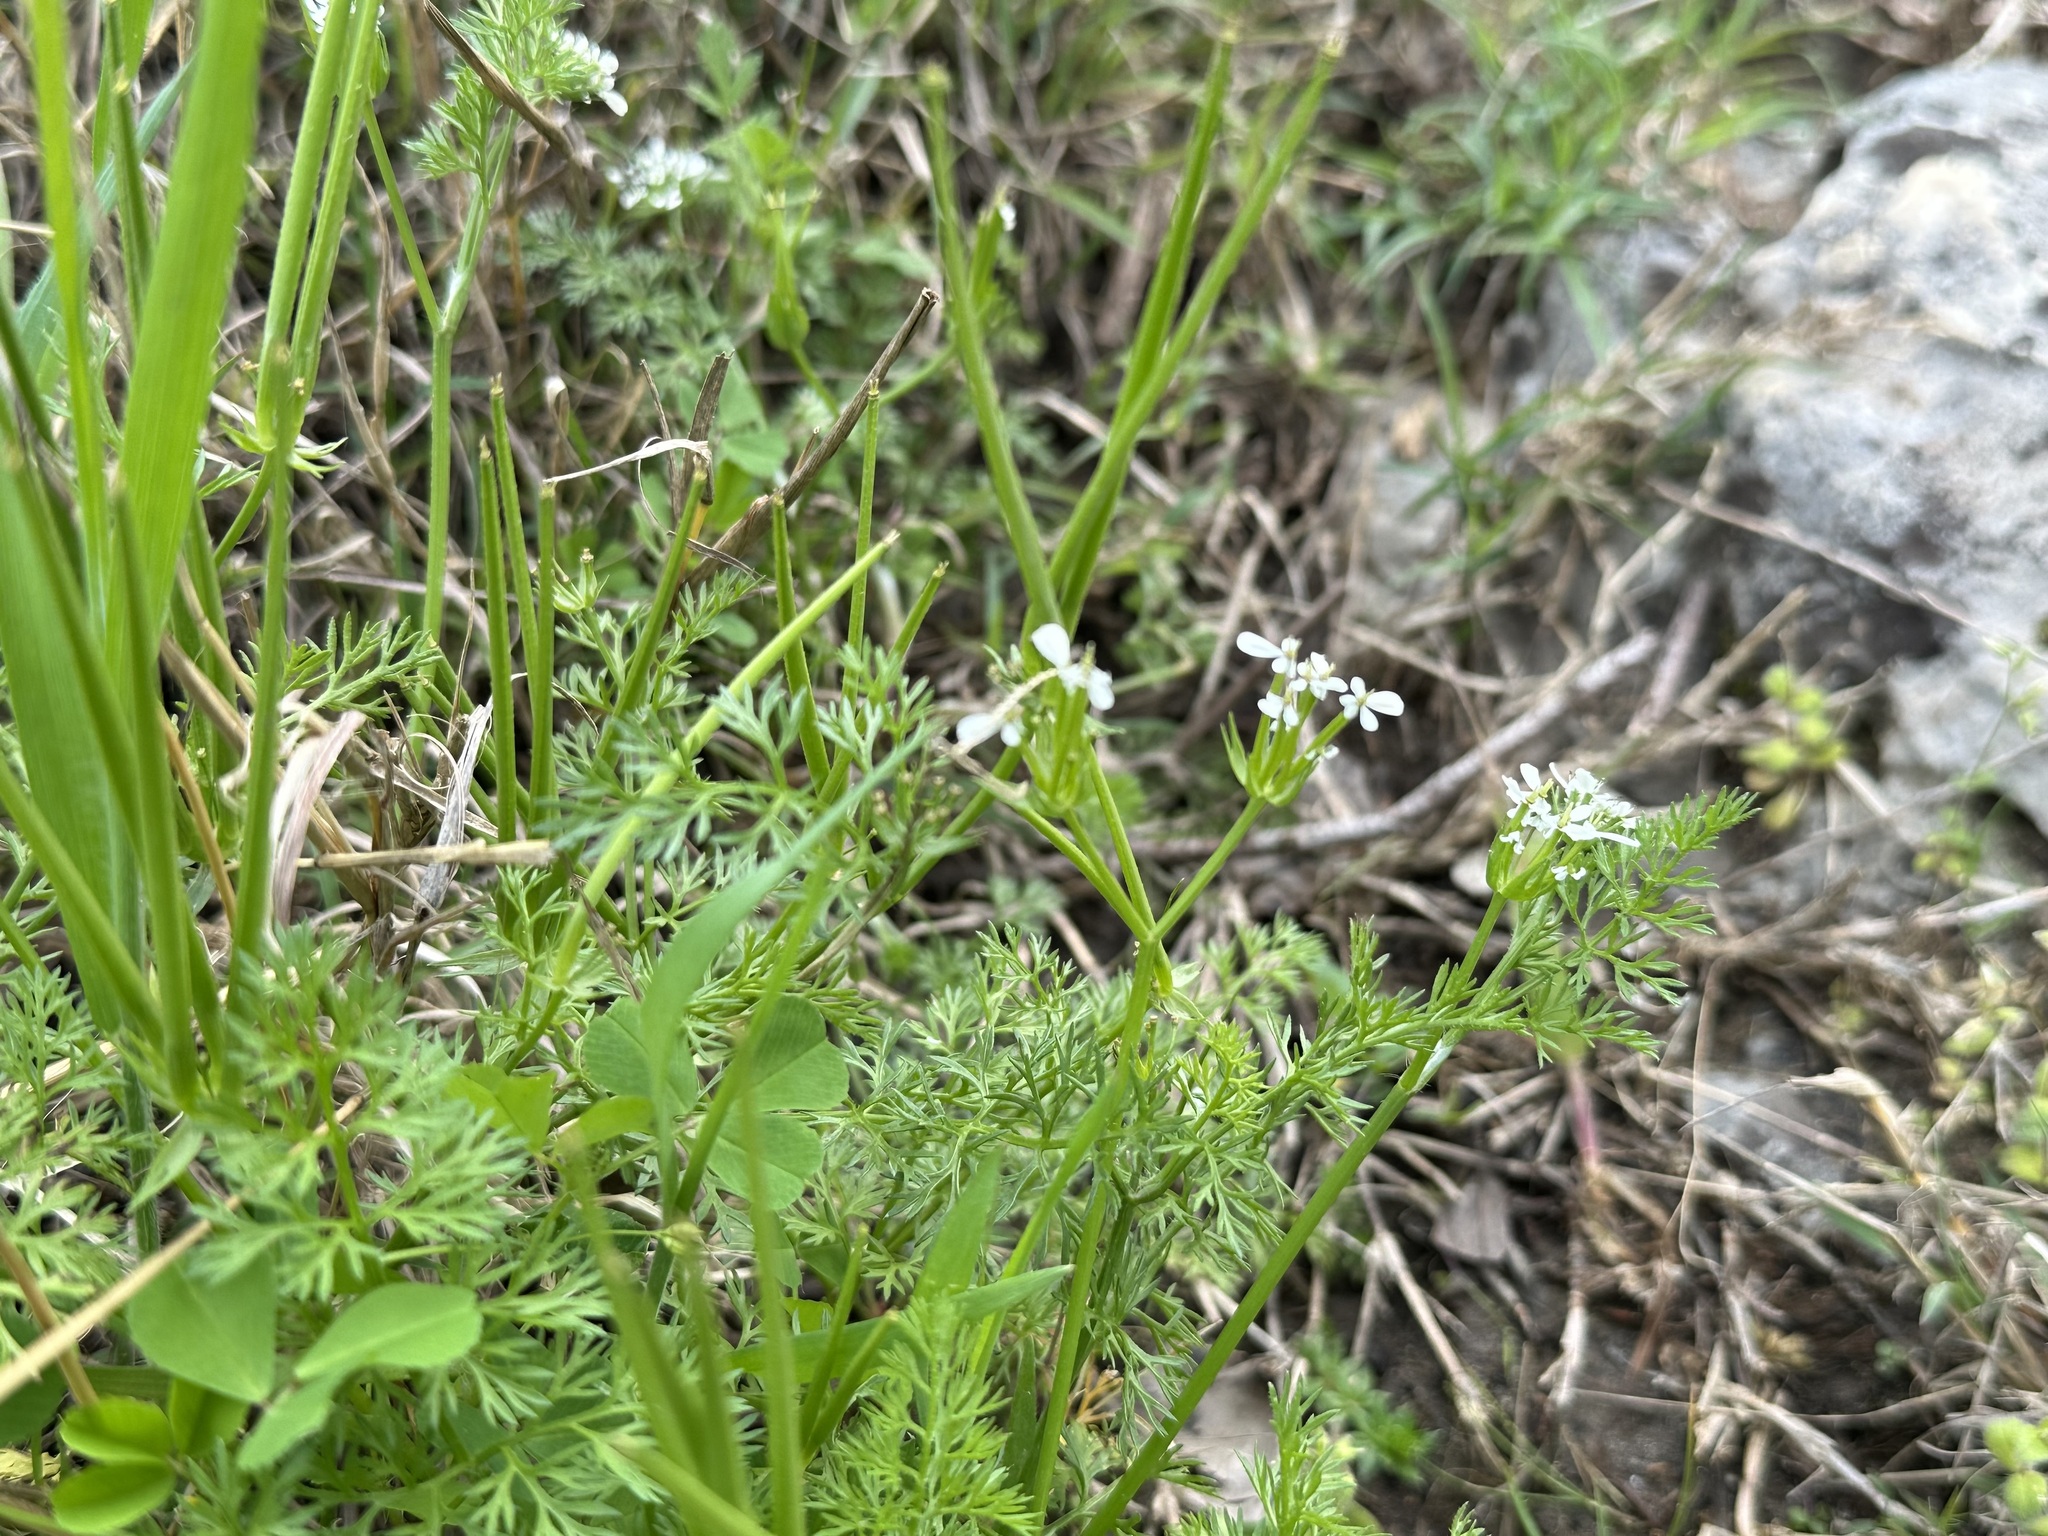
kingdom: Plantae
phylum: Tracheophyta
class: Magnoliopsida
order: Apiales
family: Apiaceae
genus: Scandix
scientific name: Scandix pecten-veneris
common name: Shepherd's-needle
